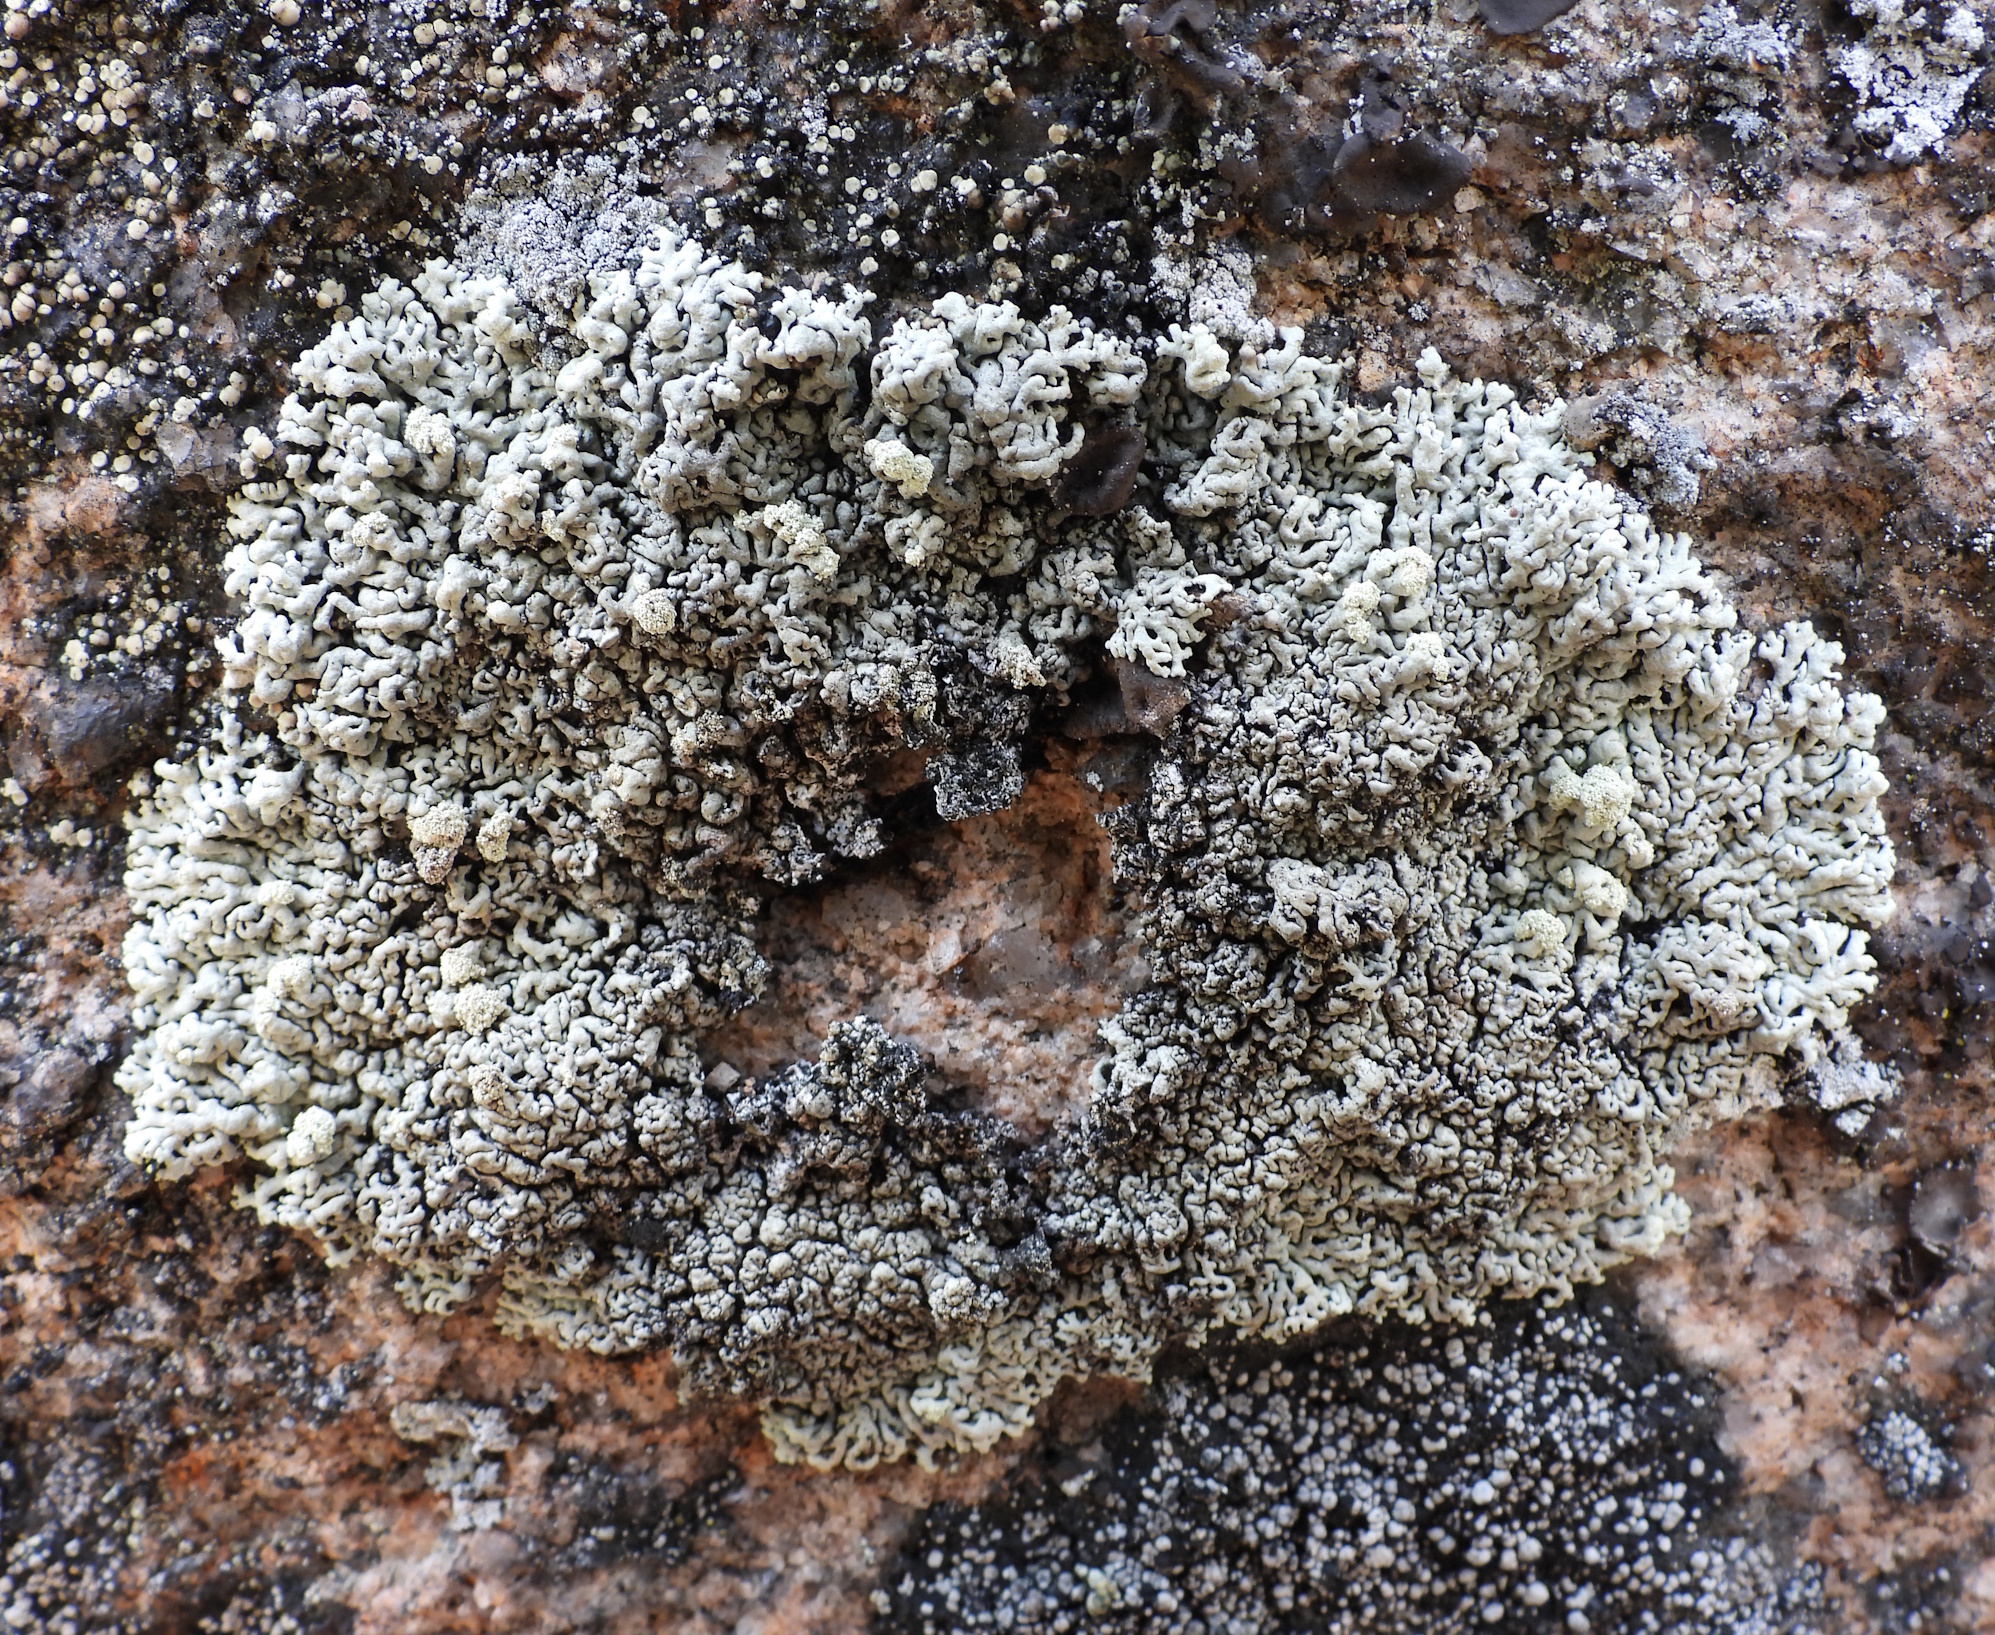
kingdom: Fungi
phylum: Ascomycota
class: Lecanoromycetes
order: Lecanorales
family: Parmeliaceae
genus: Arctoparmelia
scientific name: Arctoparmelia incurva
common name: Bent ring lichen
